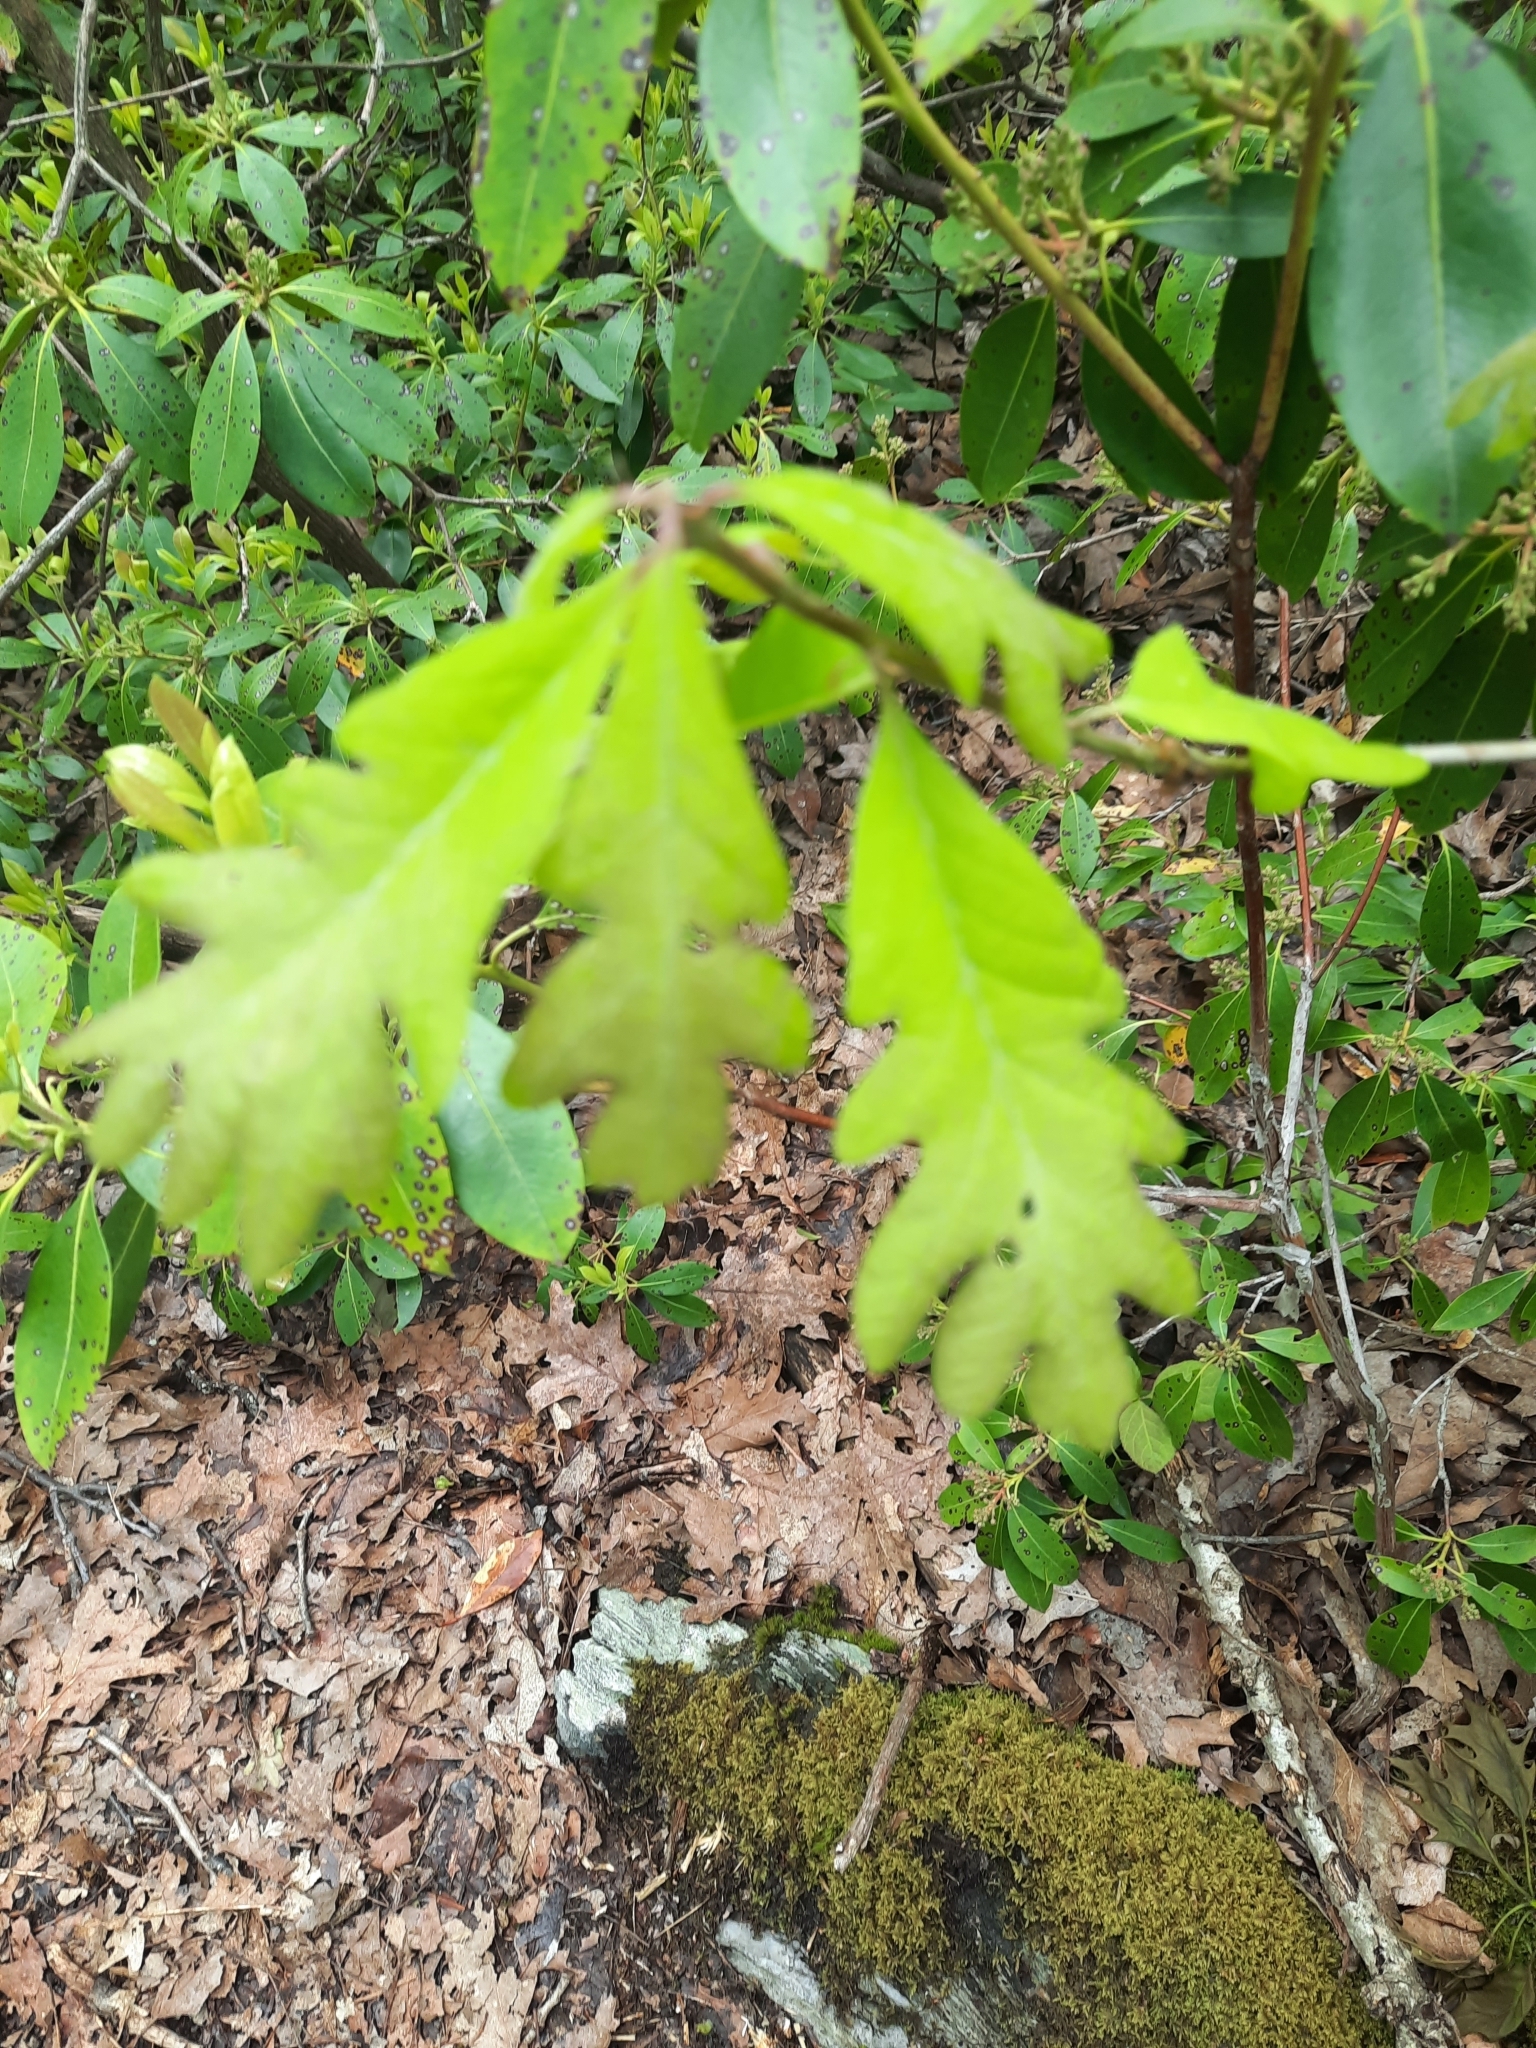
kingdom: Plantae
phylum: Tracheophyta
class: Magnoliopsida
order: Fagales
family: Fagaceae
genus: Quercus
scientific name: Quercus alba
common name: White oak
